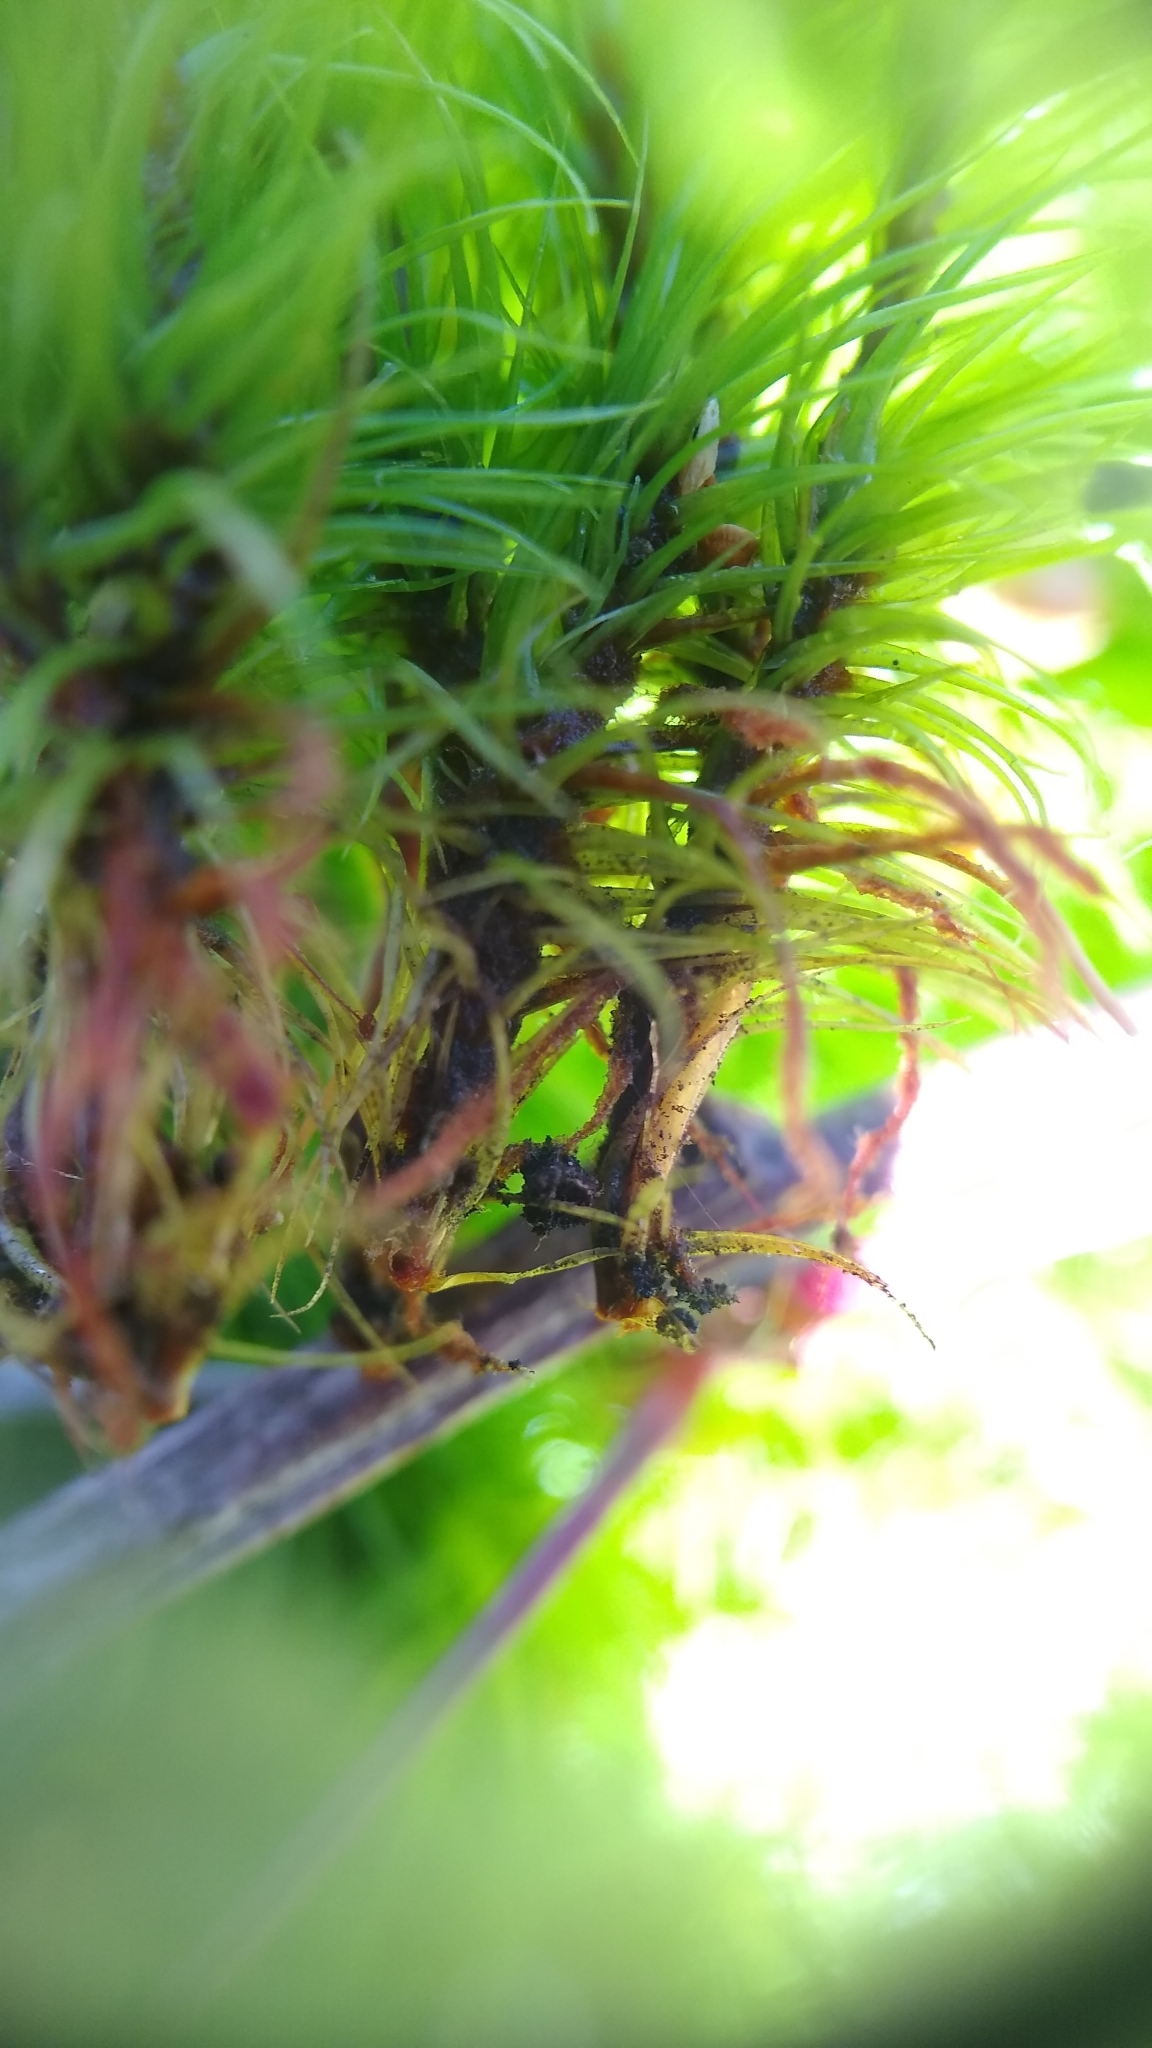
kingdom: Plantae
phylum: Bryophyta
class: Bryopsida
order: Dicranales
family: Dicranaceae
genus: Dicranum
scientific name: Dicranum scoparium
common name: Broom fork-moss
